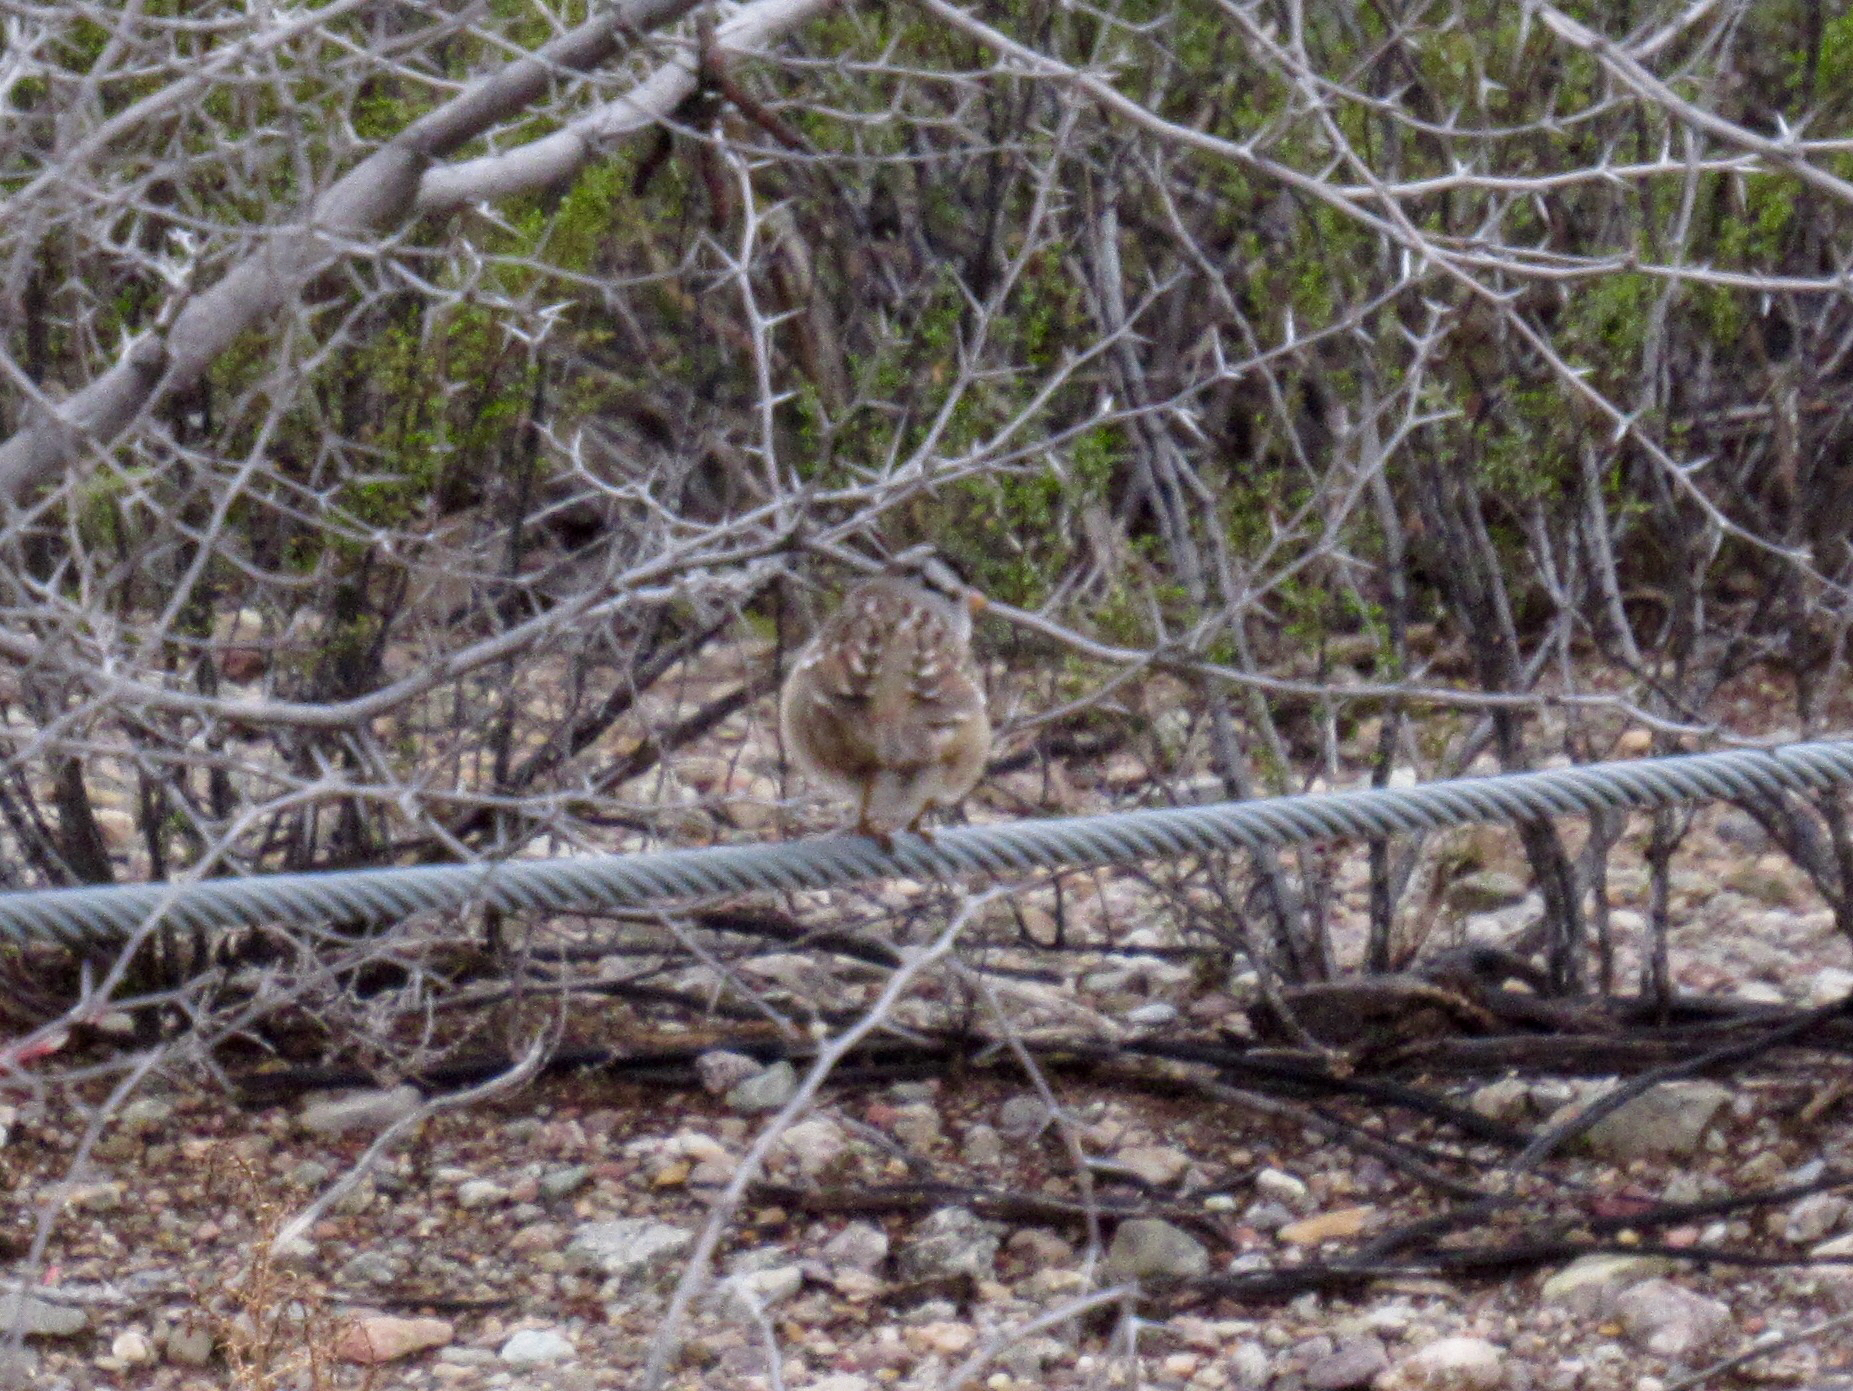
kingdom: Animalia
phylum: Chordata
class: Aves
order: Passeriformes
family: Passerellidae
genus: Zonotrichia
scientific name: Zonotrichia leucophrys
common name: White-crowned sparrow
